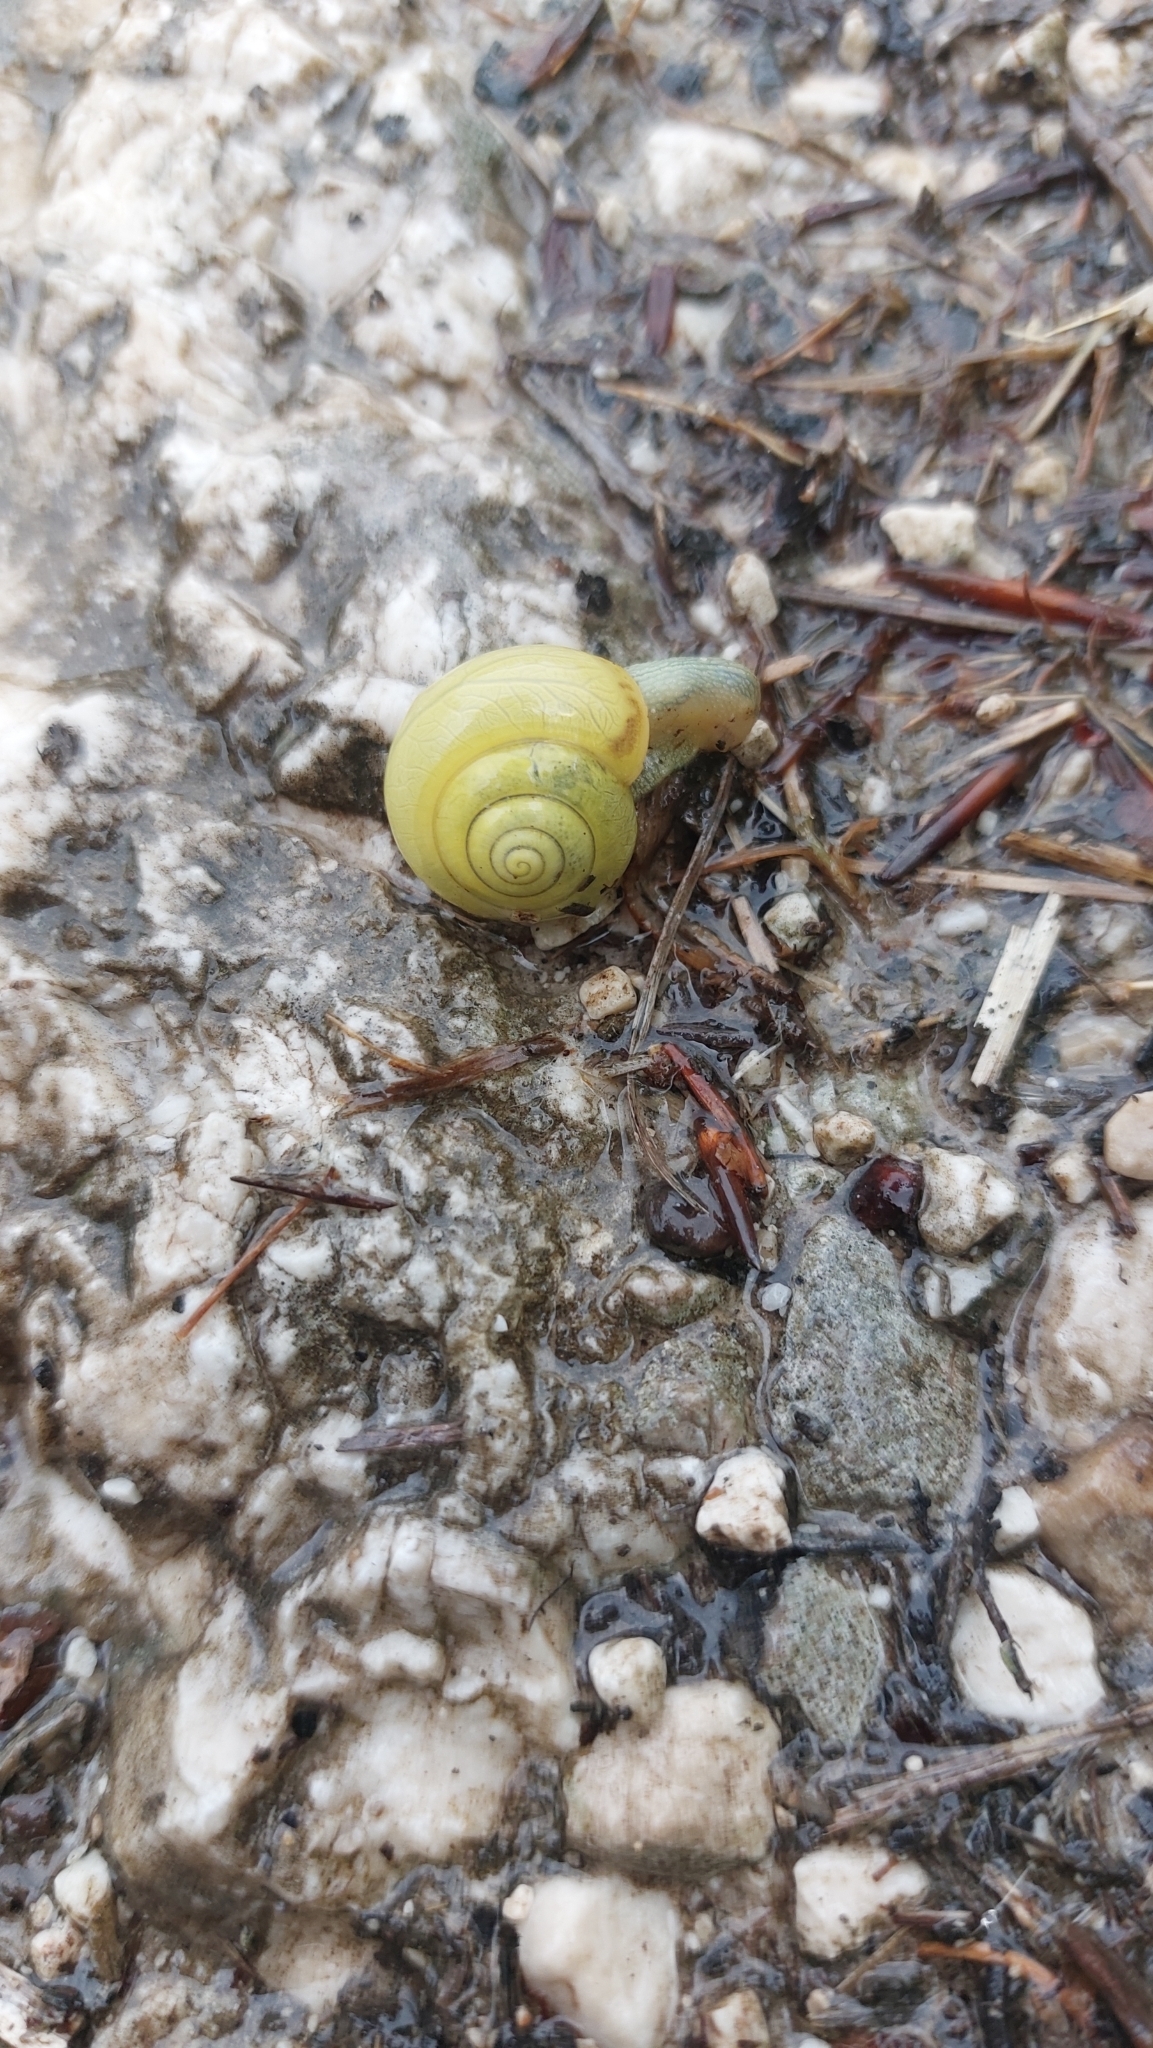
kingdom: Animalia
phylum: Mollusca
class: Gastropoda
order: Stylommatophora
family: Camaenidae
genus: Fruticicola
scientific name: Fruticicola fruticum
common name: Bush snail
